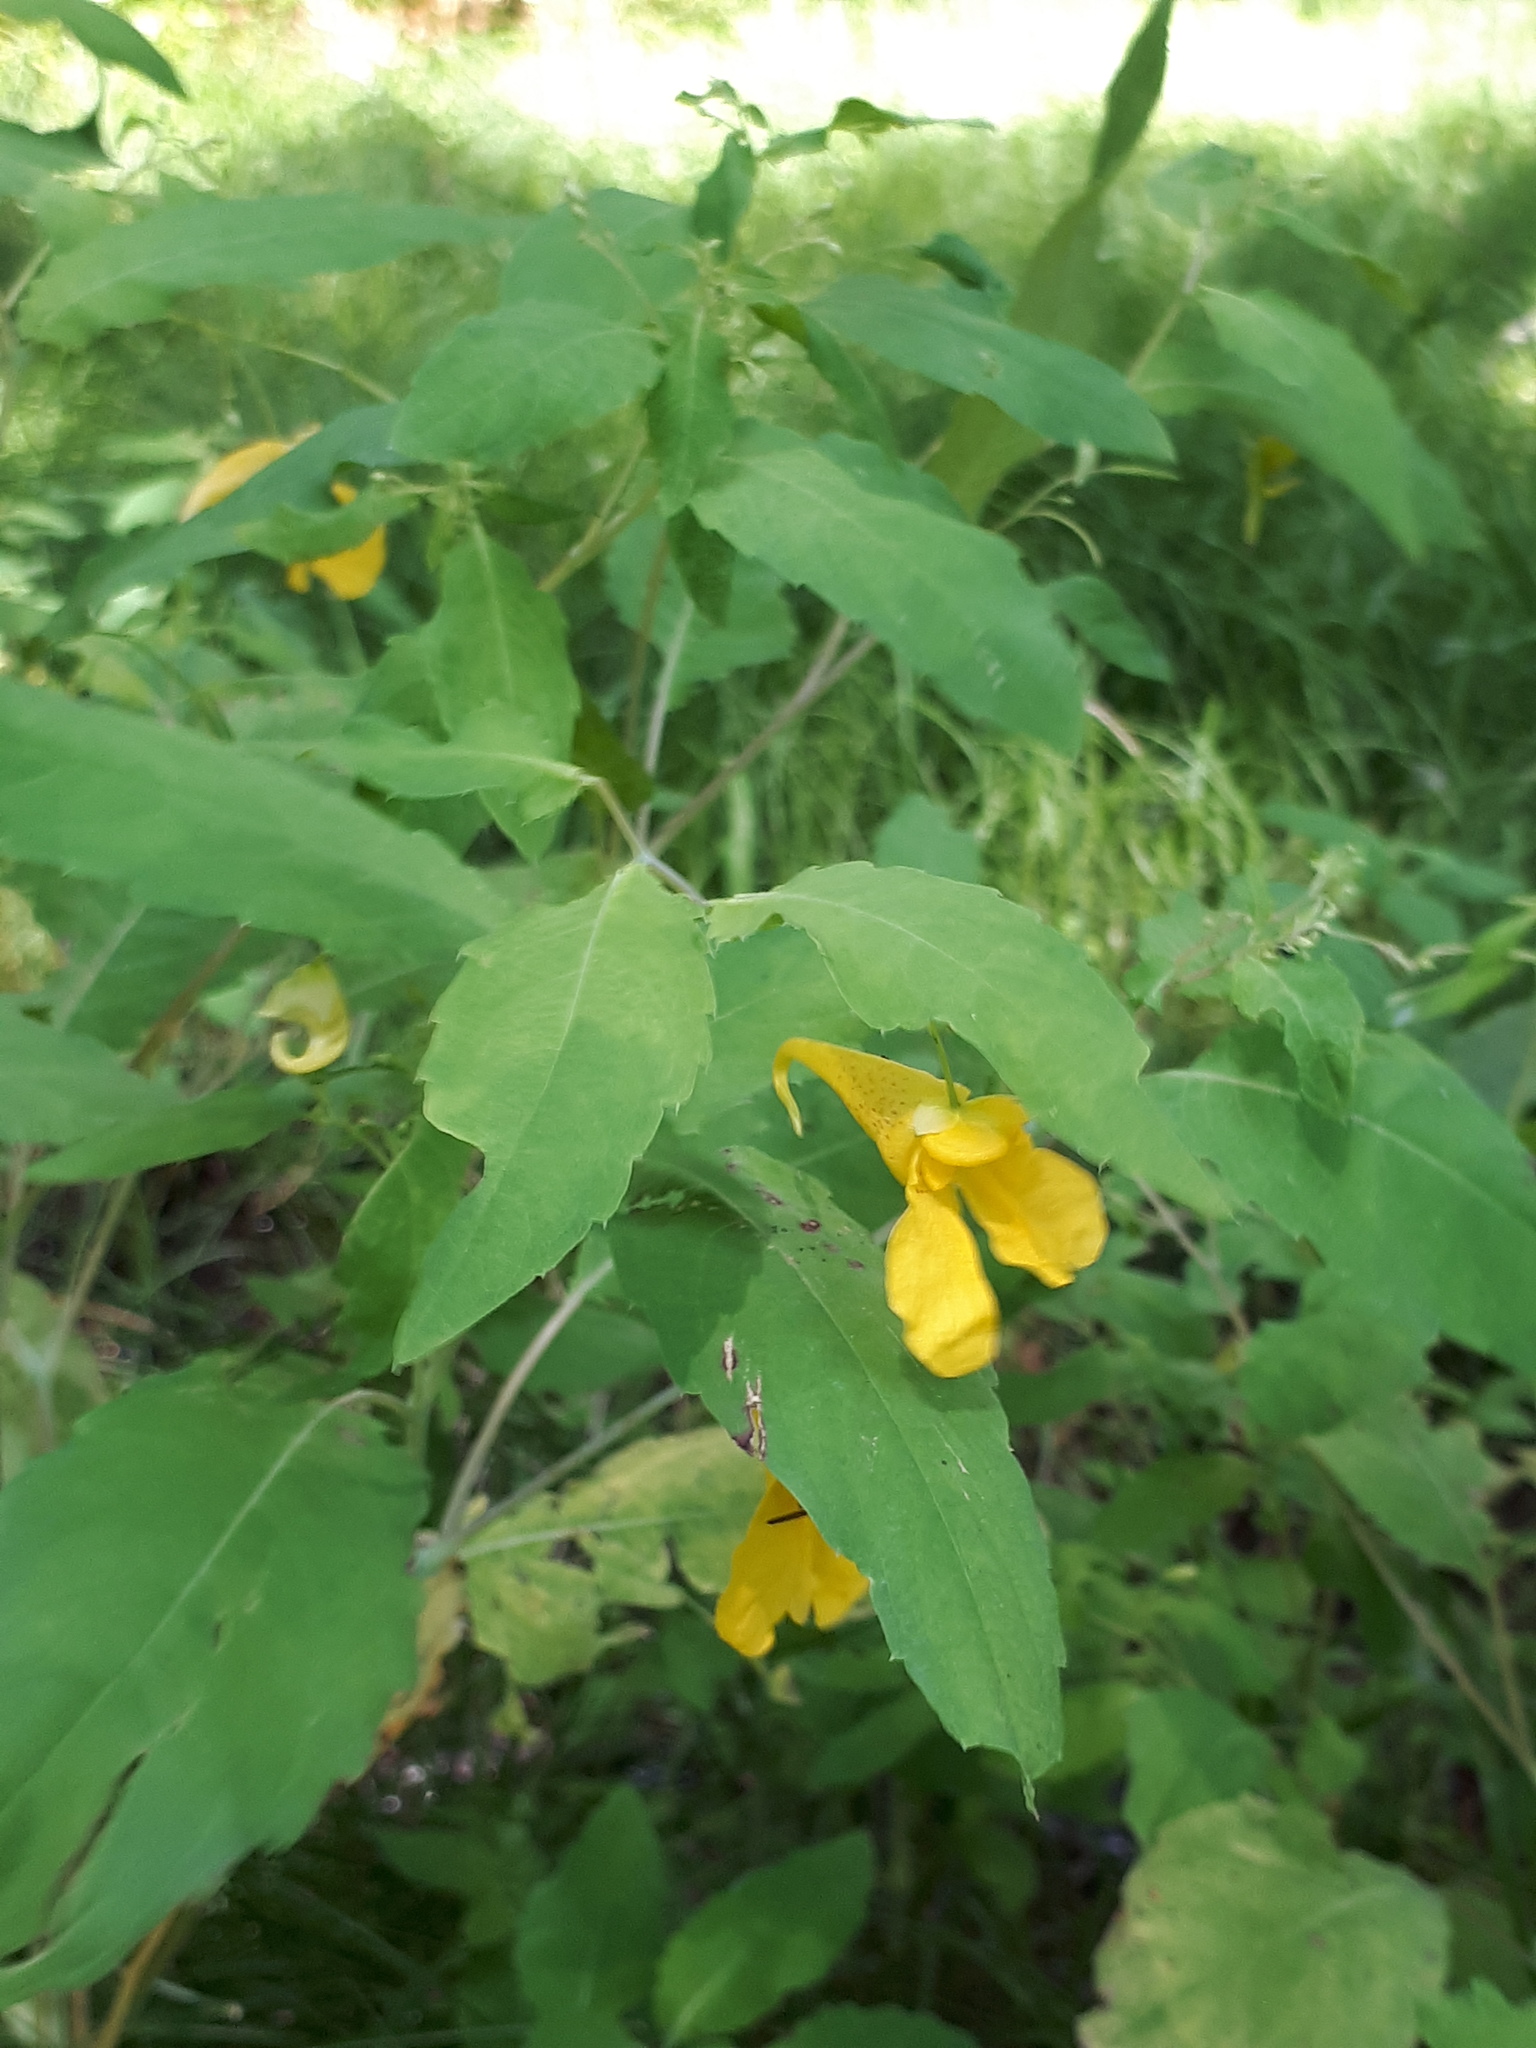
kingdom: Plantae
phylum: Tracheophyta
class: Magnoliopsida
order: Ericales
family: Balsaminaceae
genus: Impatiens
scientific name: Impatiens noli-tangere
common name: Touch-me-not balsam
